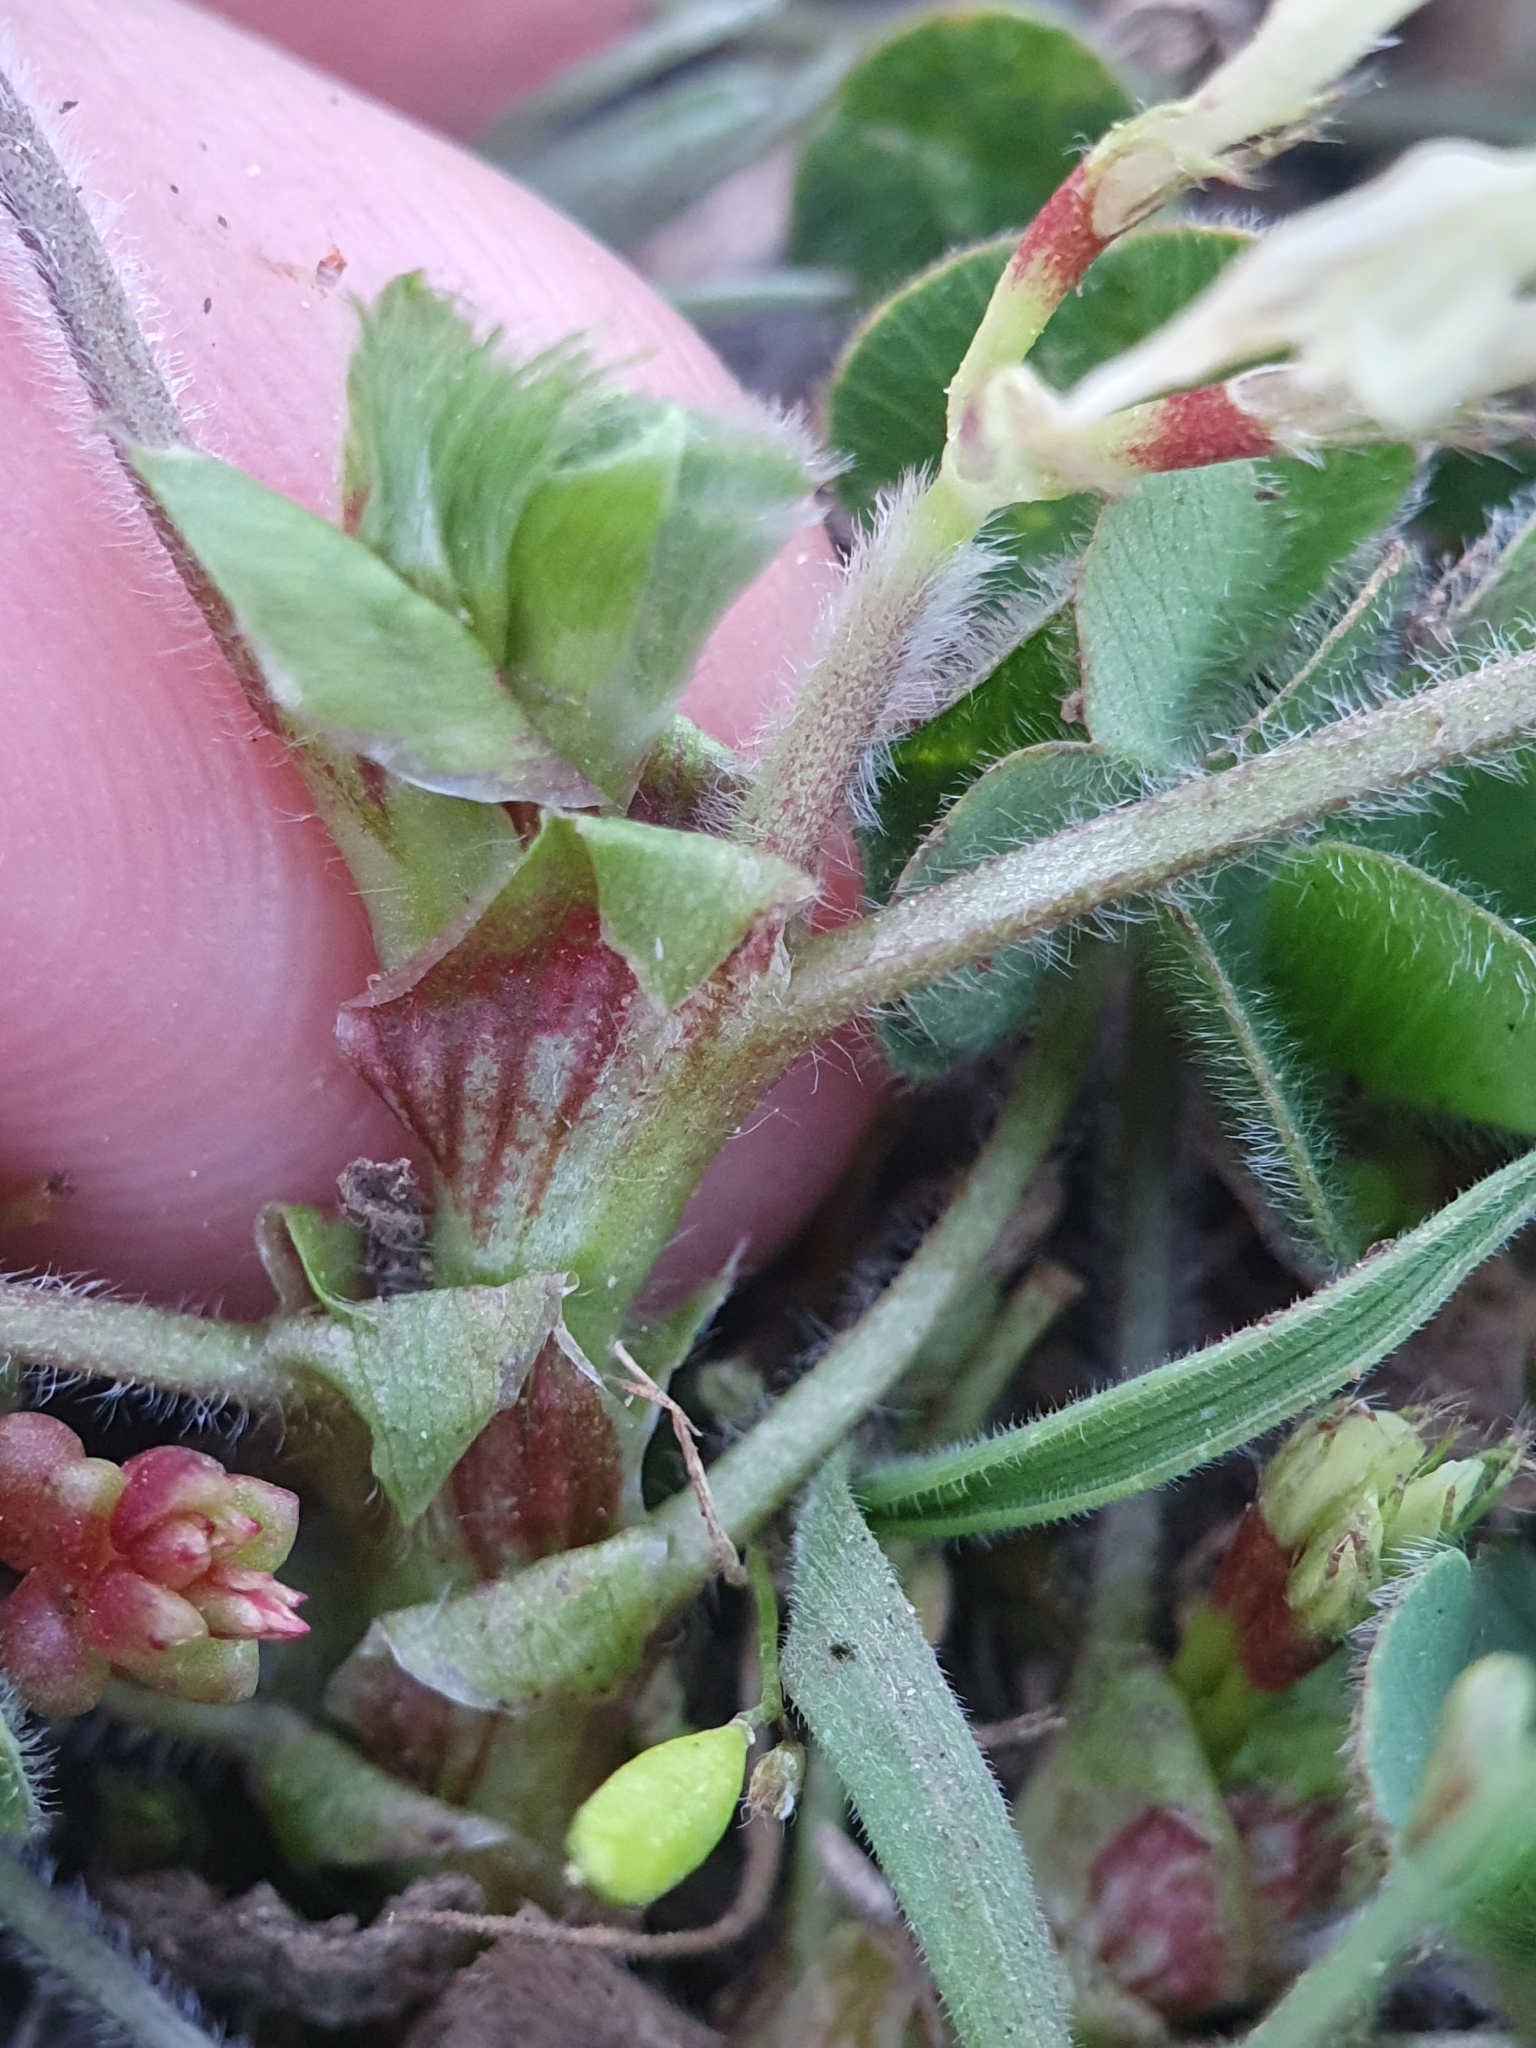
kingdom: Plantae
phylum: Tracheophyta
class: Magnoliopsida
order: Fabales
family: Fabaceae
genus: Trifolium
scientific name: Trifolium subterraneum
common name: Subterranean clover
